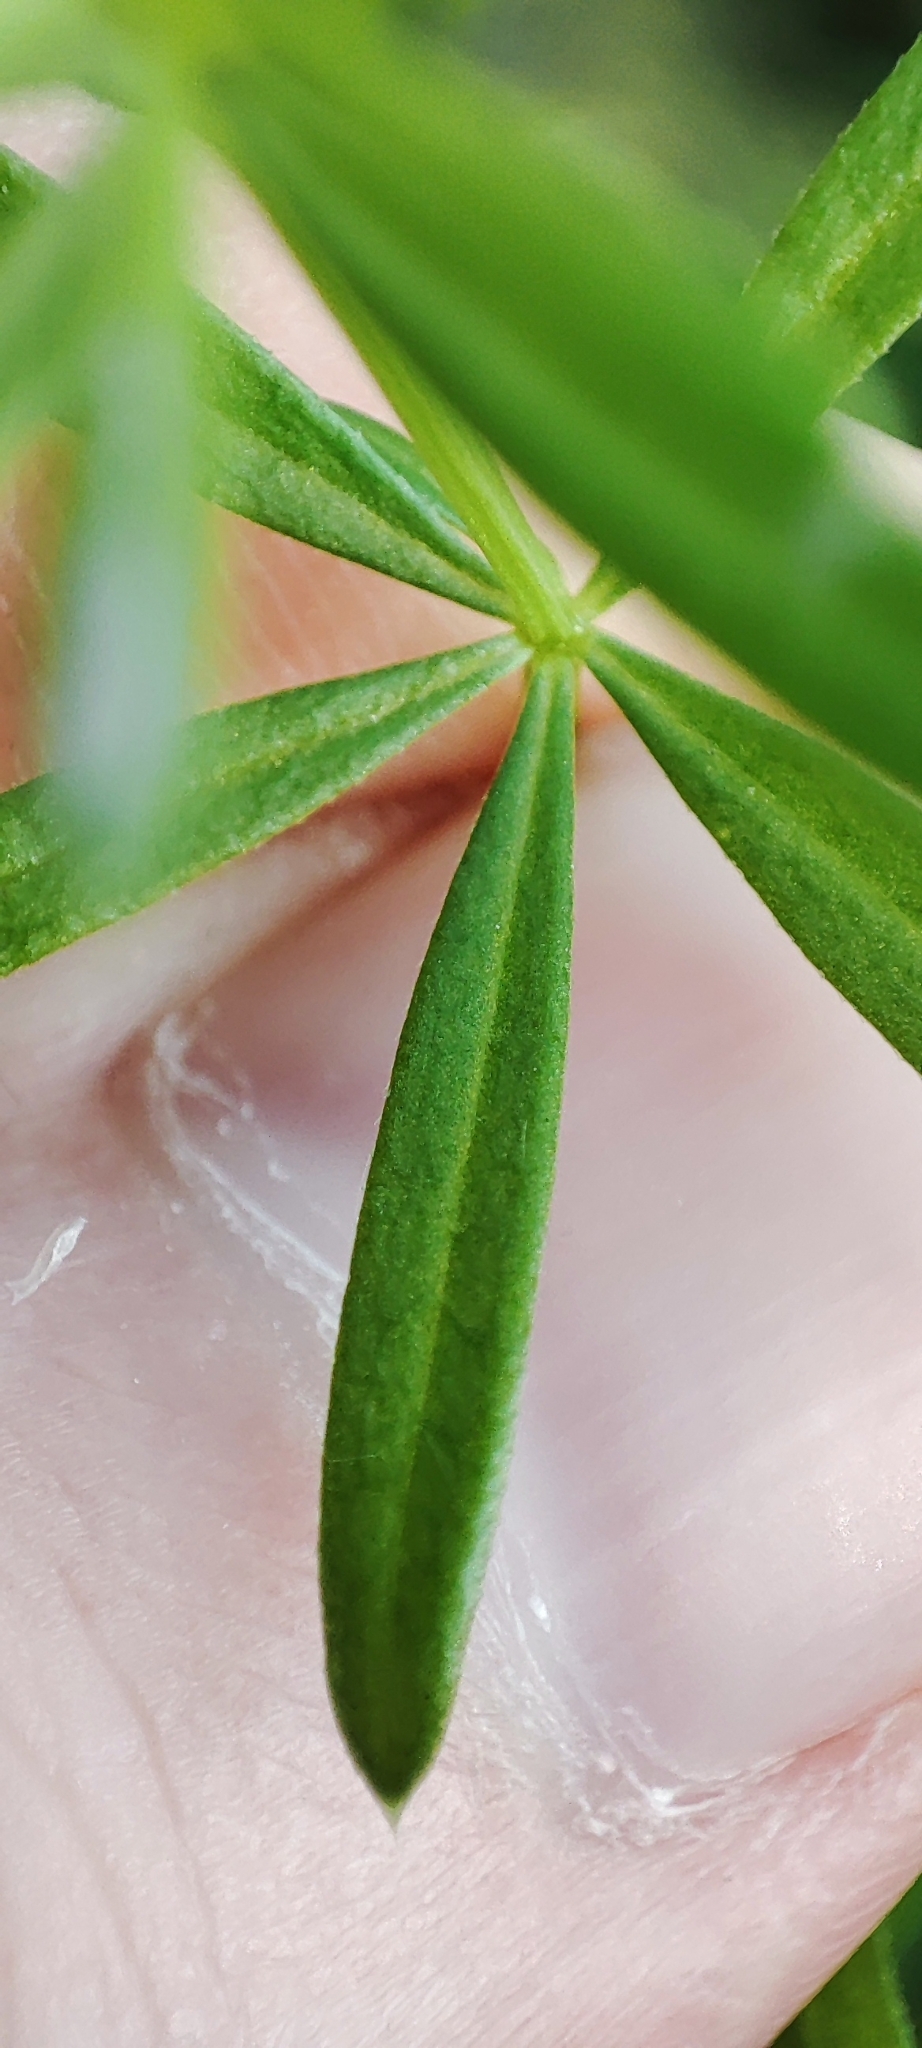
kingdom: Plantae
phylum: Tracheophyta
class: Magnoliopsida
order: Gentianales
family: Rubiaceae
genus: Galium
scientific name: Galium mollugo
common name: Hedge bedstraw
